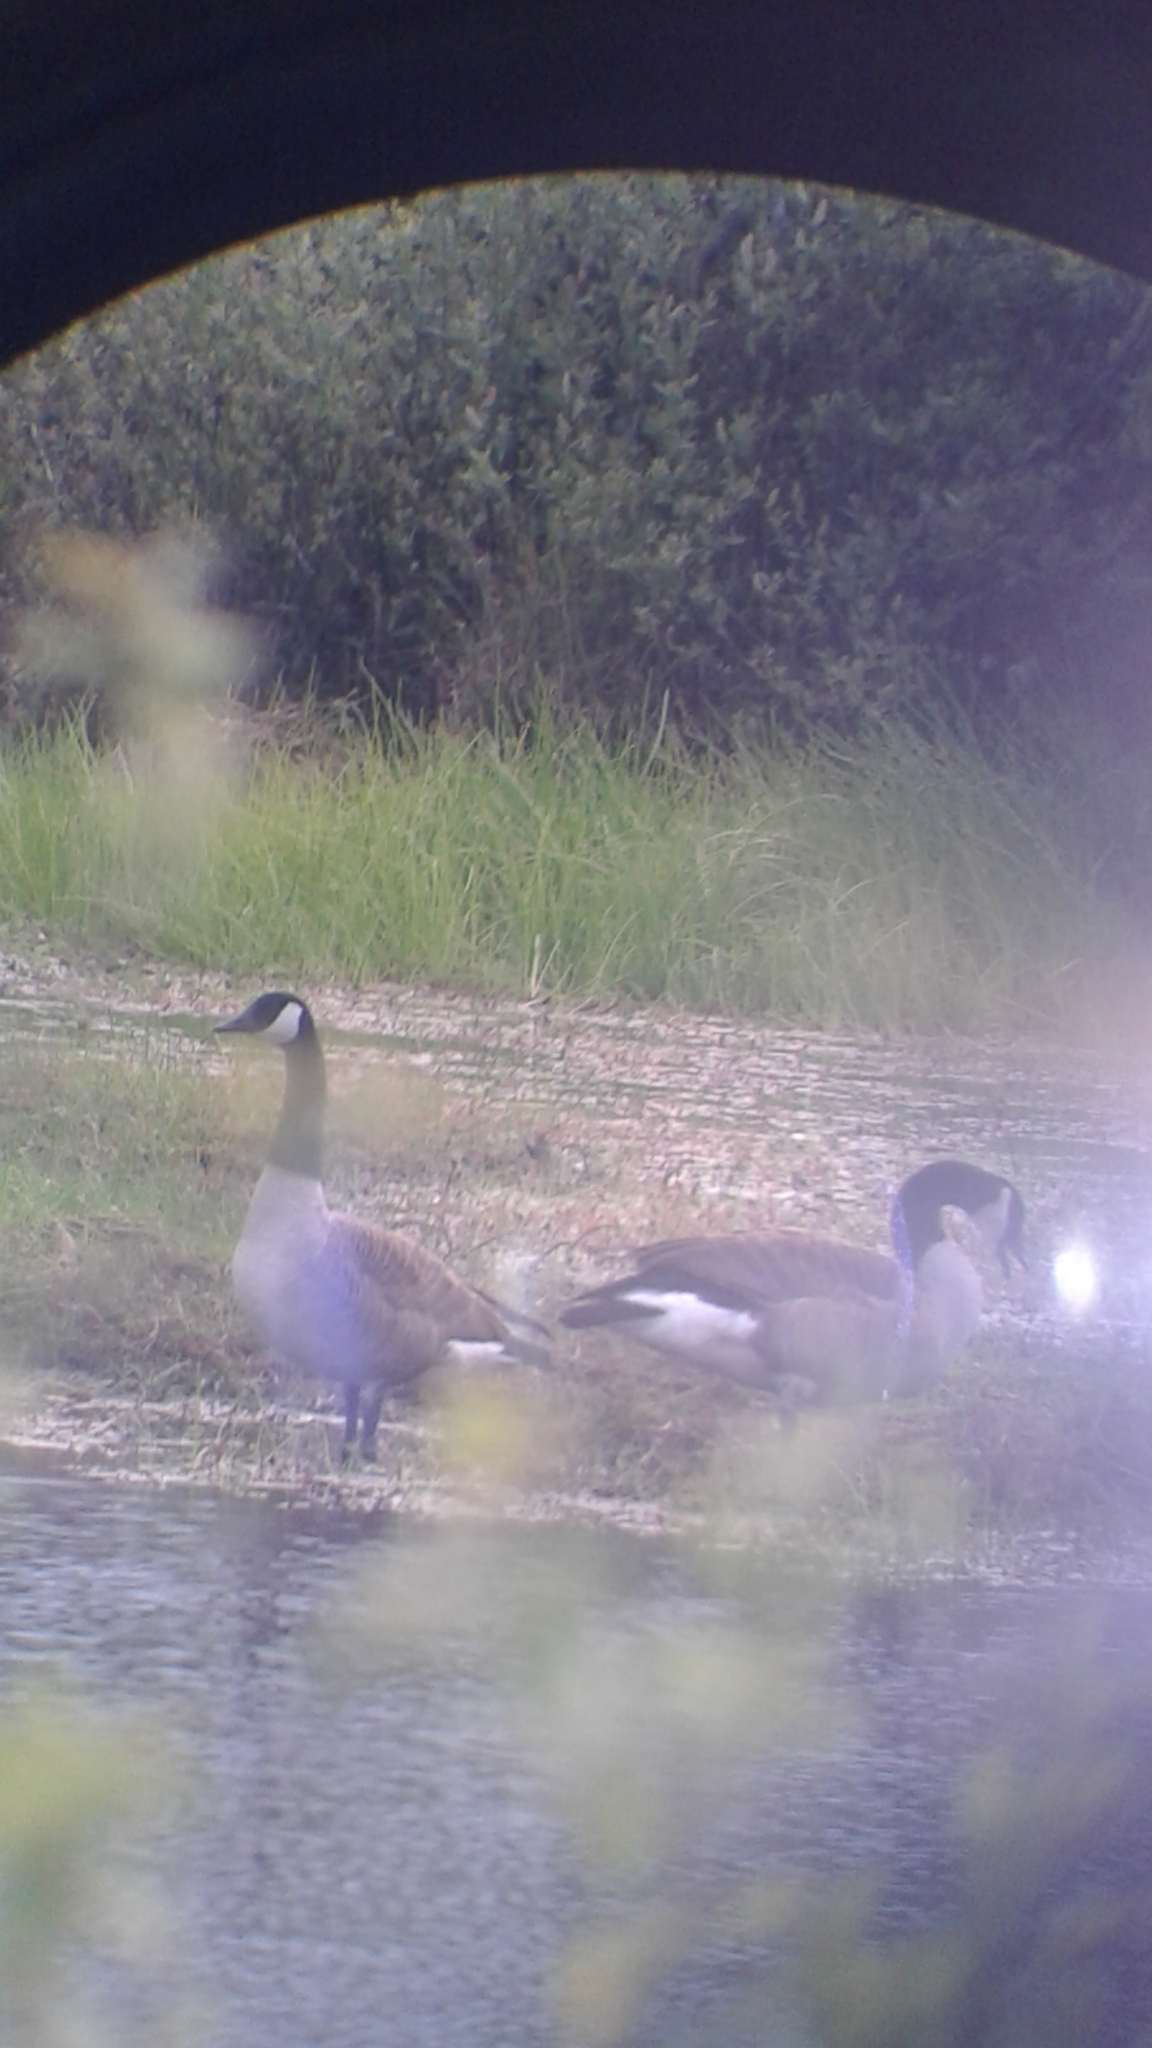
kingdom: Animalia
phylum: Chordata
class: Aves
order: Anseriformes
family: Anatidae
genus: Branta
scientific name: Branta canadensis
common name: Canada goose
